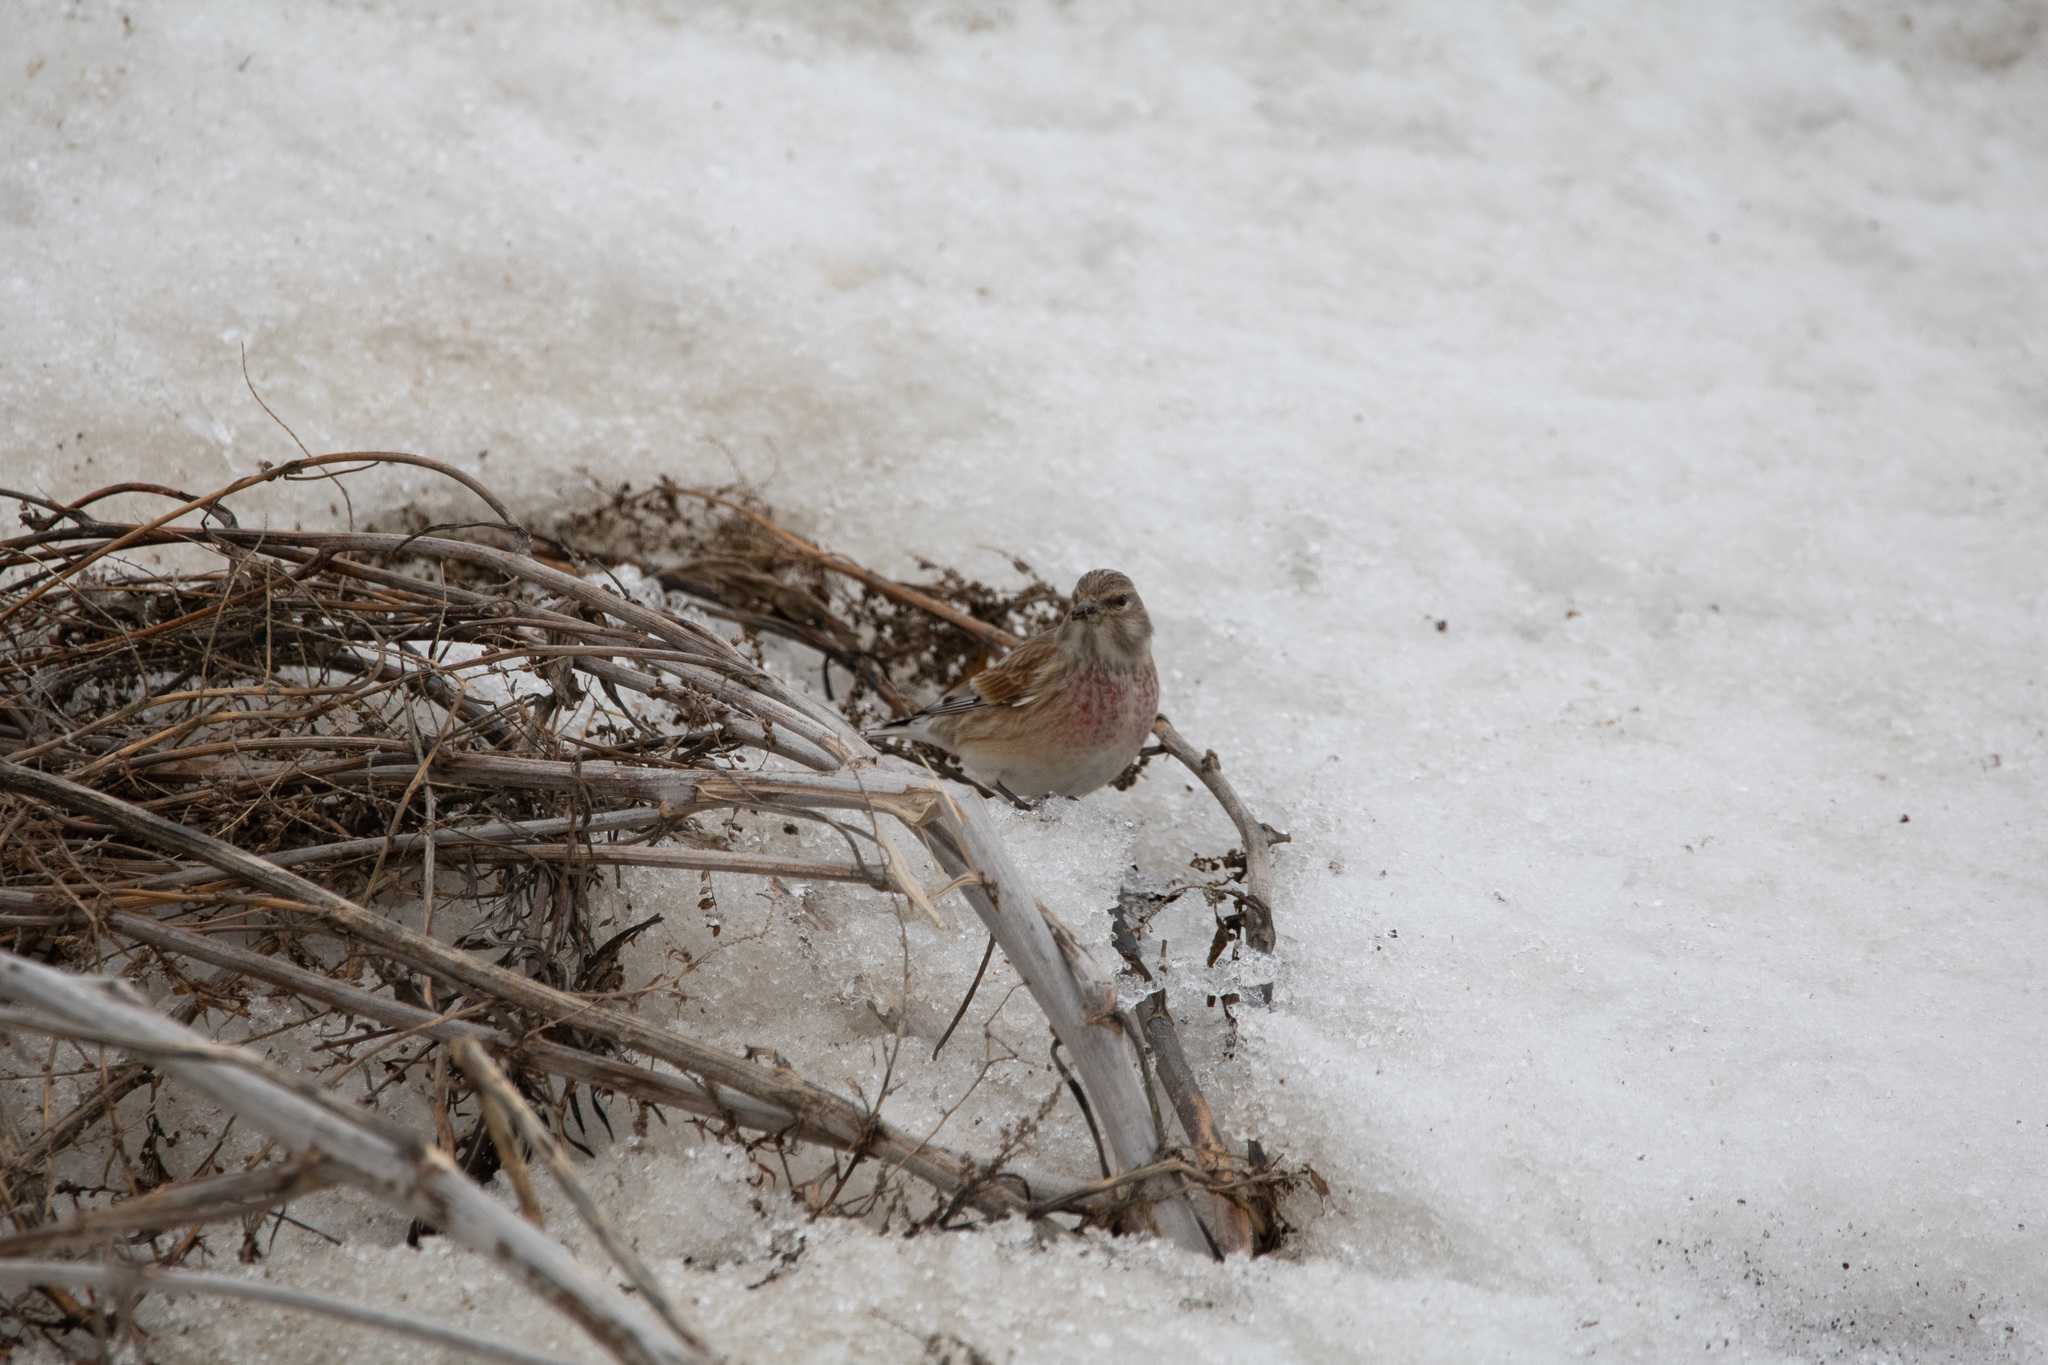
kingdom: Animalia
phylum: Chordata
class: Aves
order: Passeriformes
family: Fringillidae
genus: Linaria
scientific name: Linaria cannabina
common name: Common linnet
